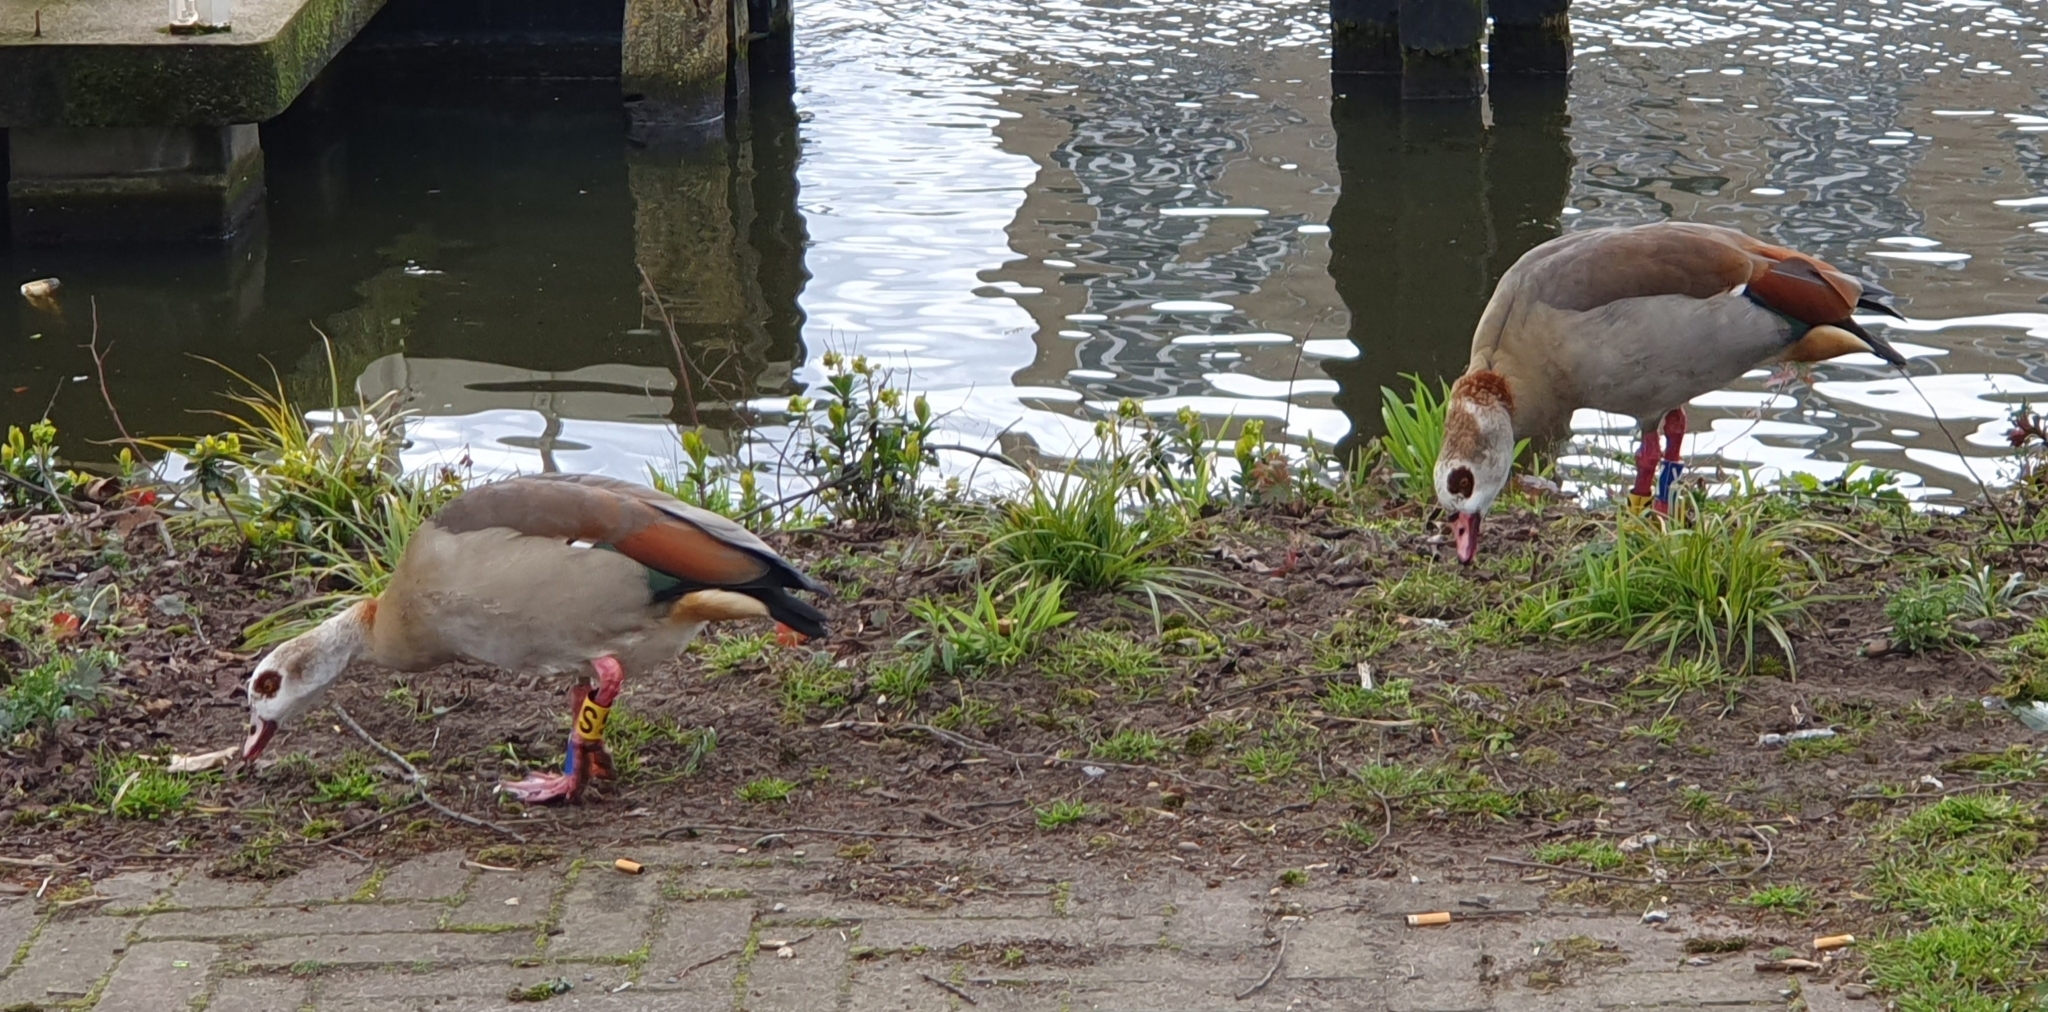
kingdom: Animalia
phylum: Chordata
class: Aves
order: Anseriformes
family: Anatidae
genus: Alopochen
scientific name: Alopochen aegyptiaca
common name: Egyptian goose
